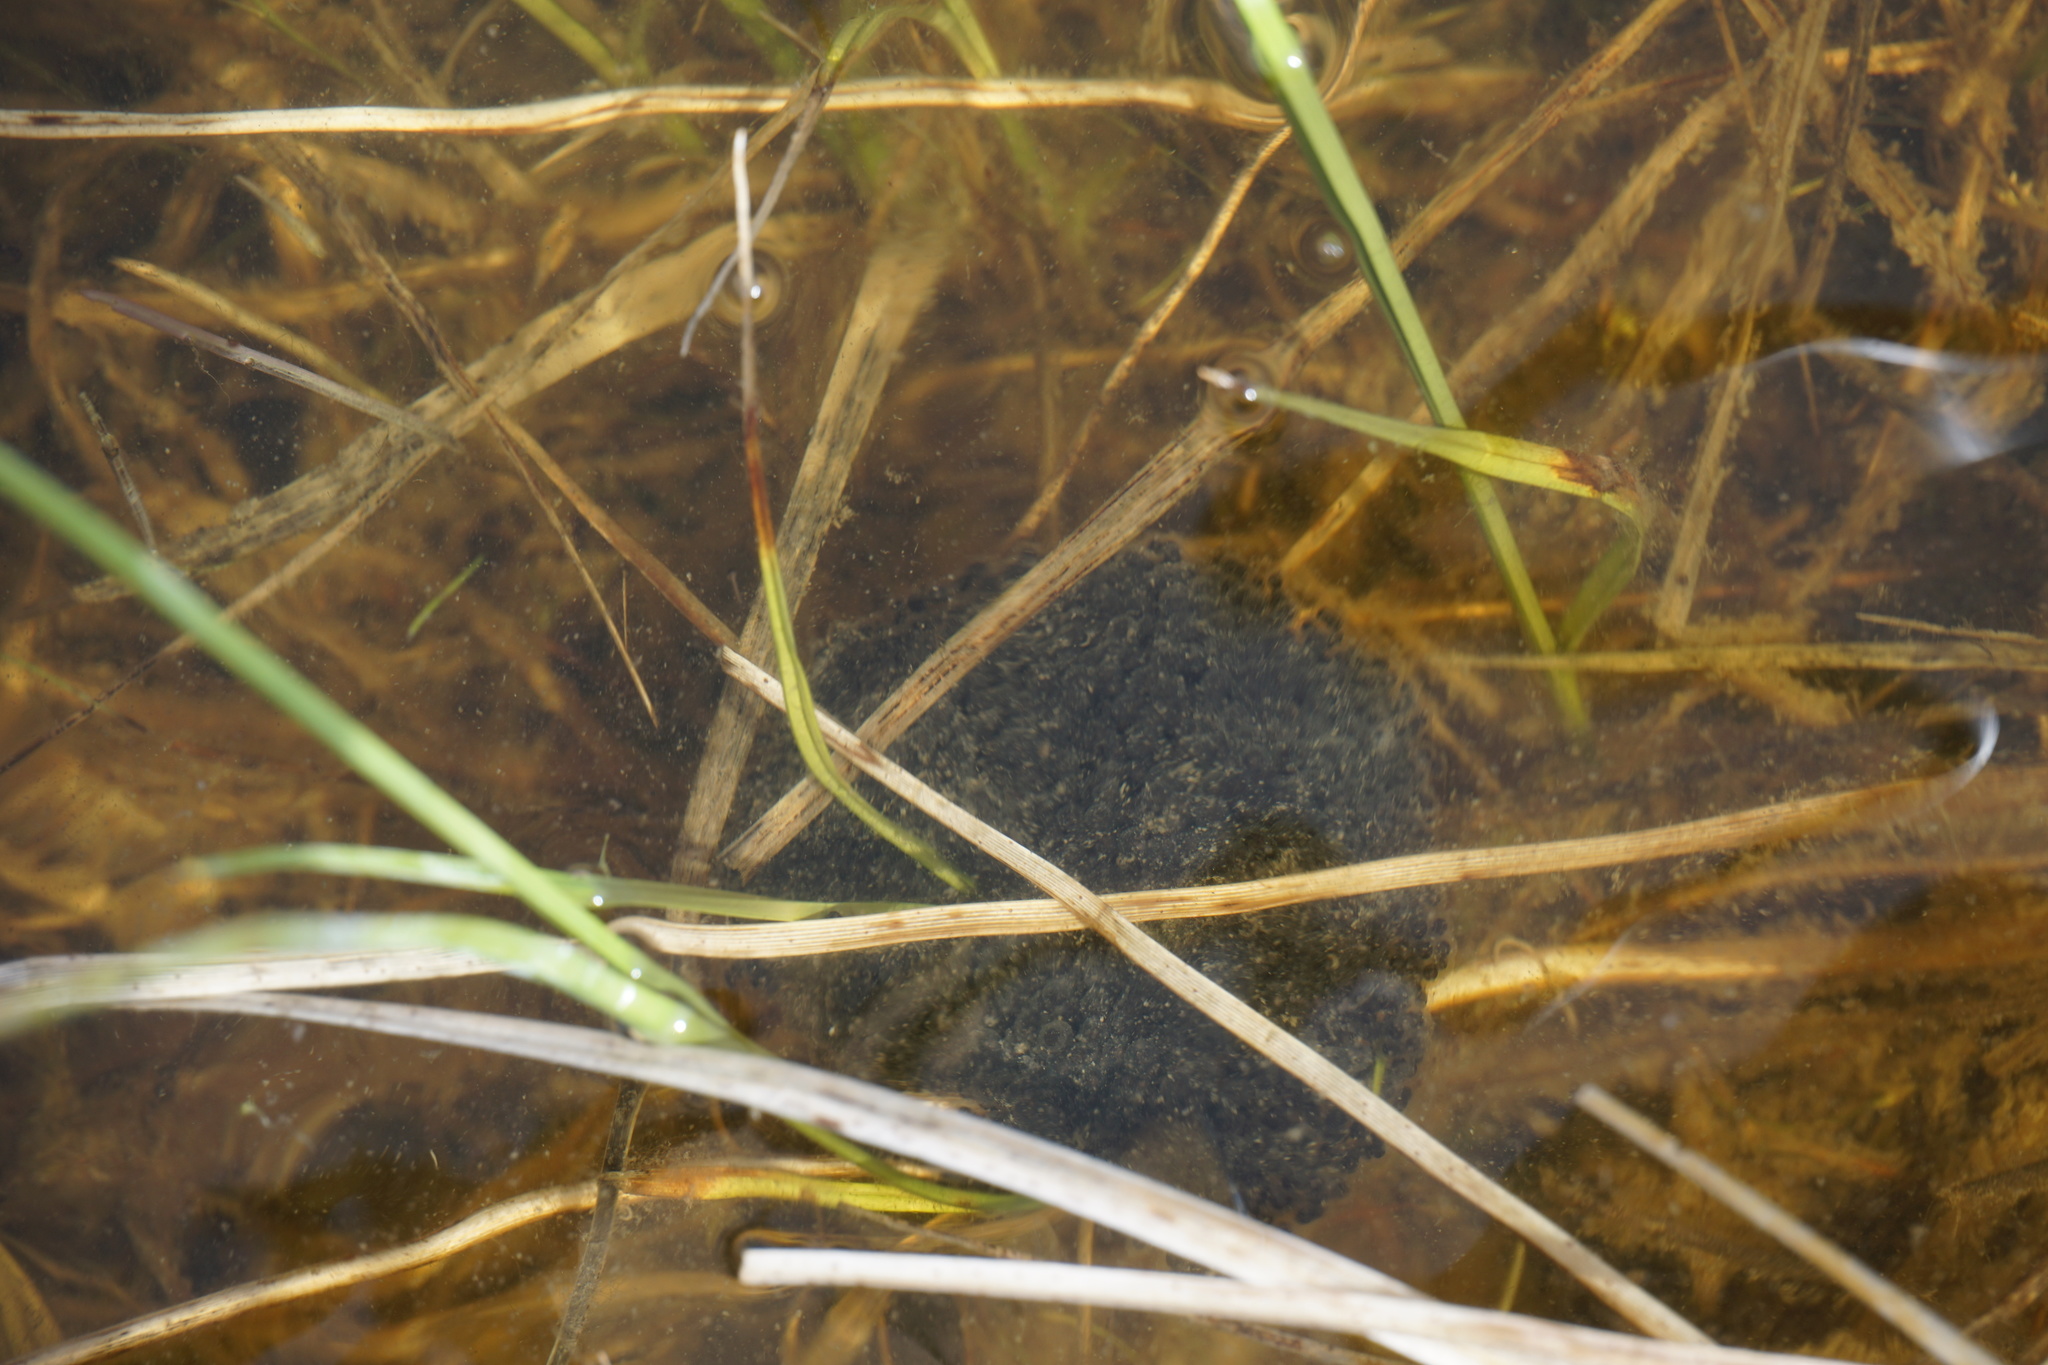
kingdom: Animalia
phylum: Chordata
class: Amphibia
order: Anura
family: Ranidae
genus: Lithobates
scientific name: Lithobates pipiens
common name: Northern leopard frog
